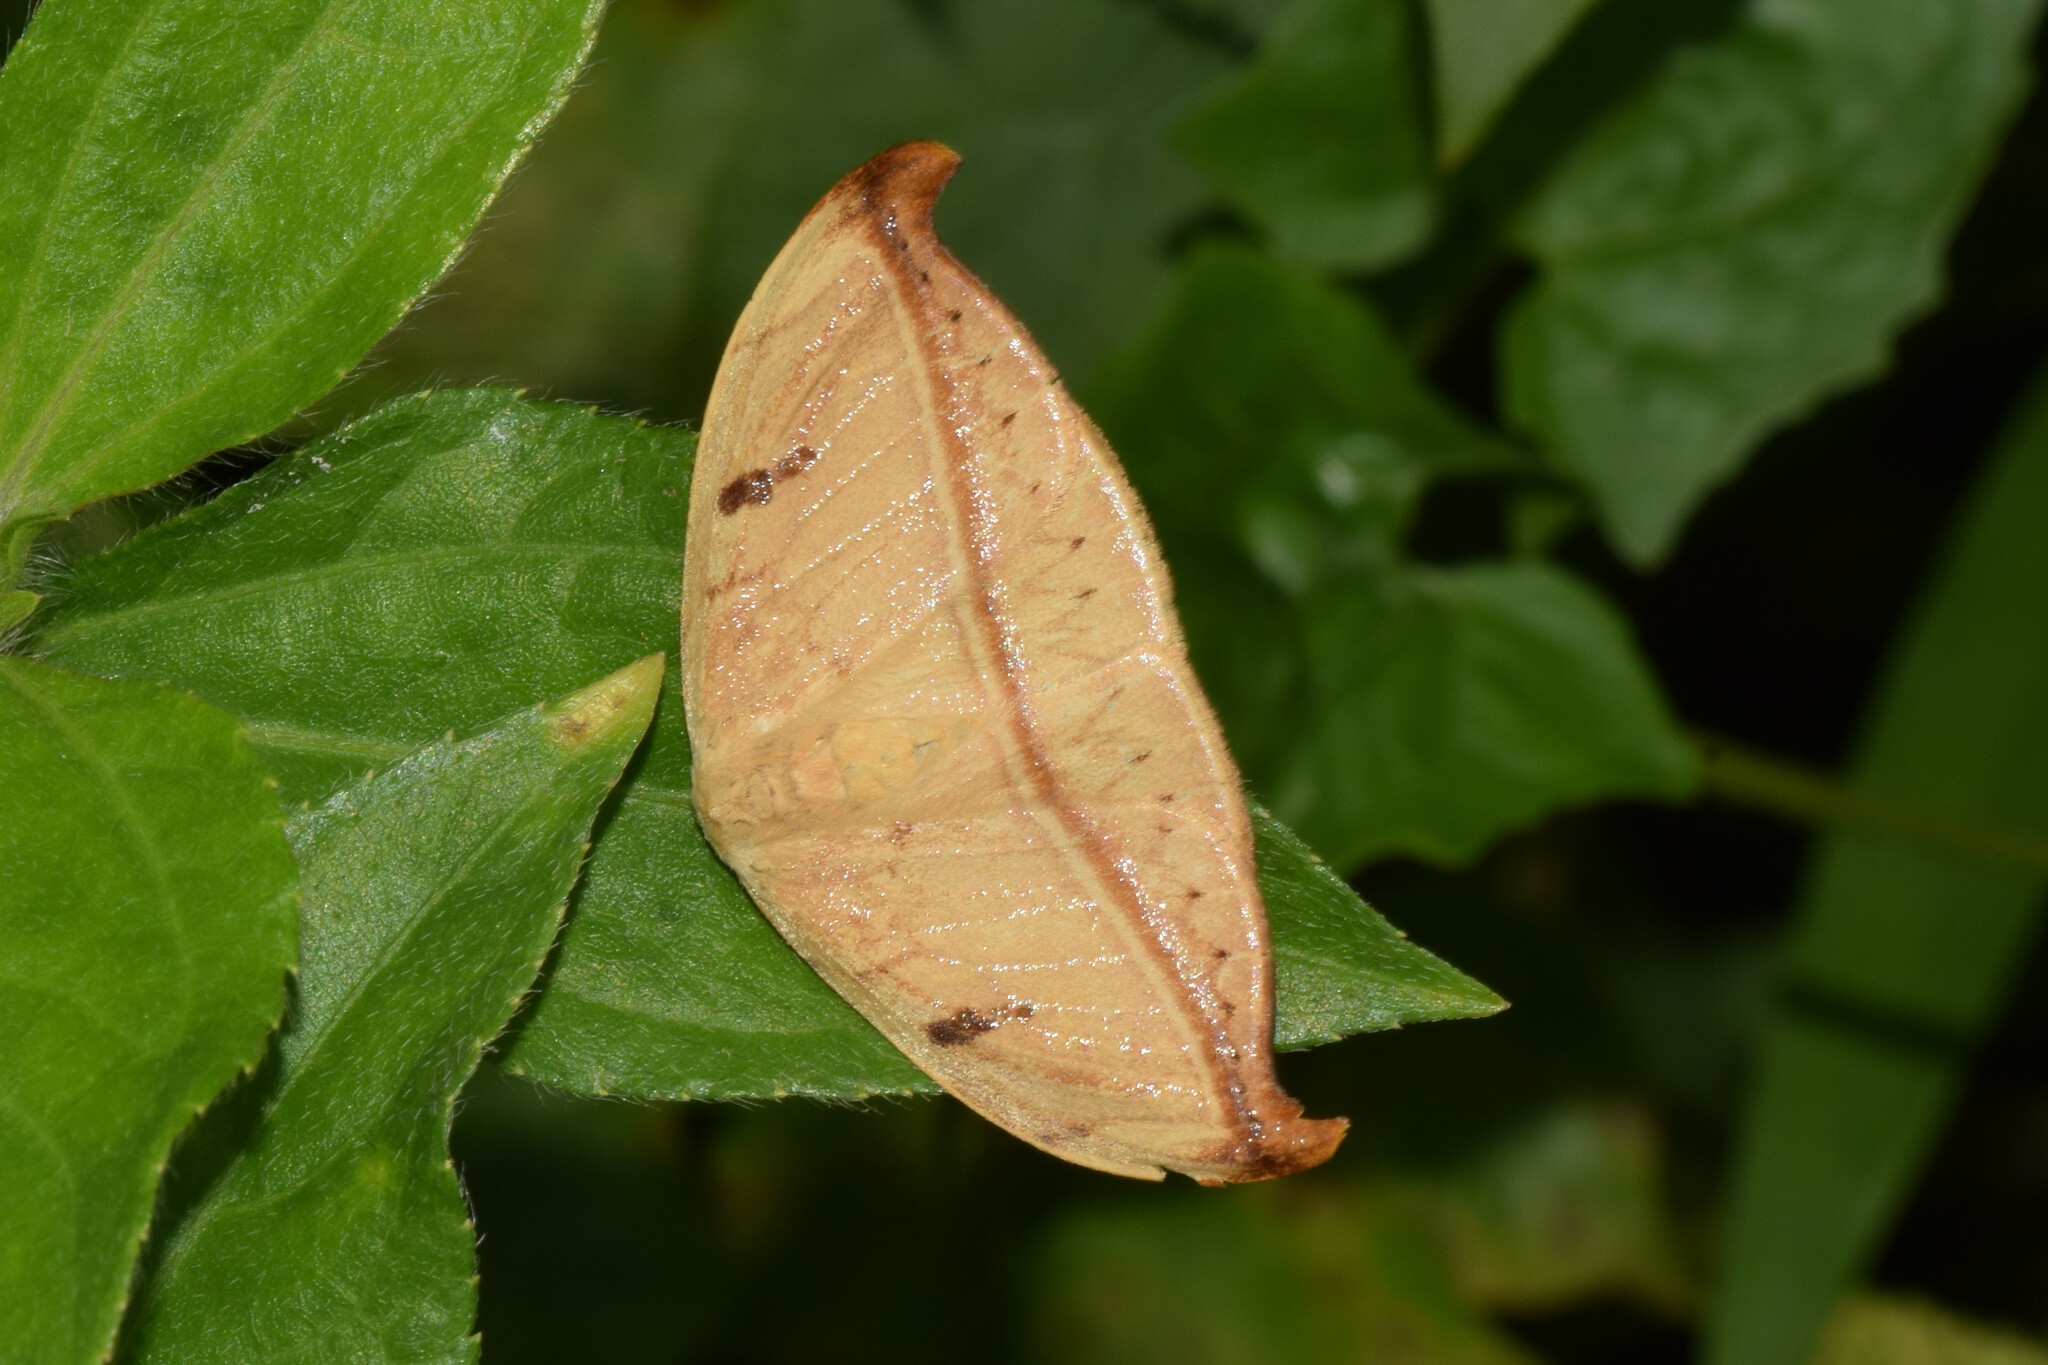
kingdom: Animalia
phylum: Arthropoda
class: Insecta
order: Lepidoptera
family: Drepanidae
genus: Callidrepana
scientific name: Callidrepana argenteola
